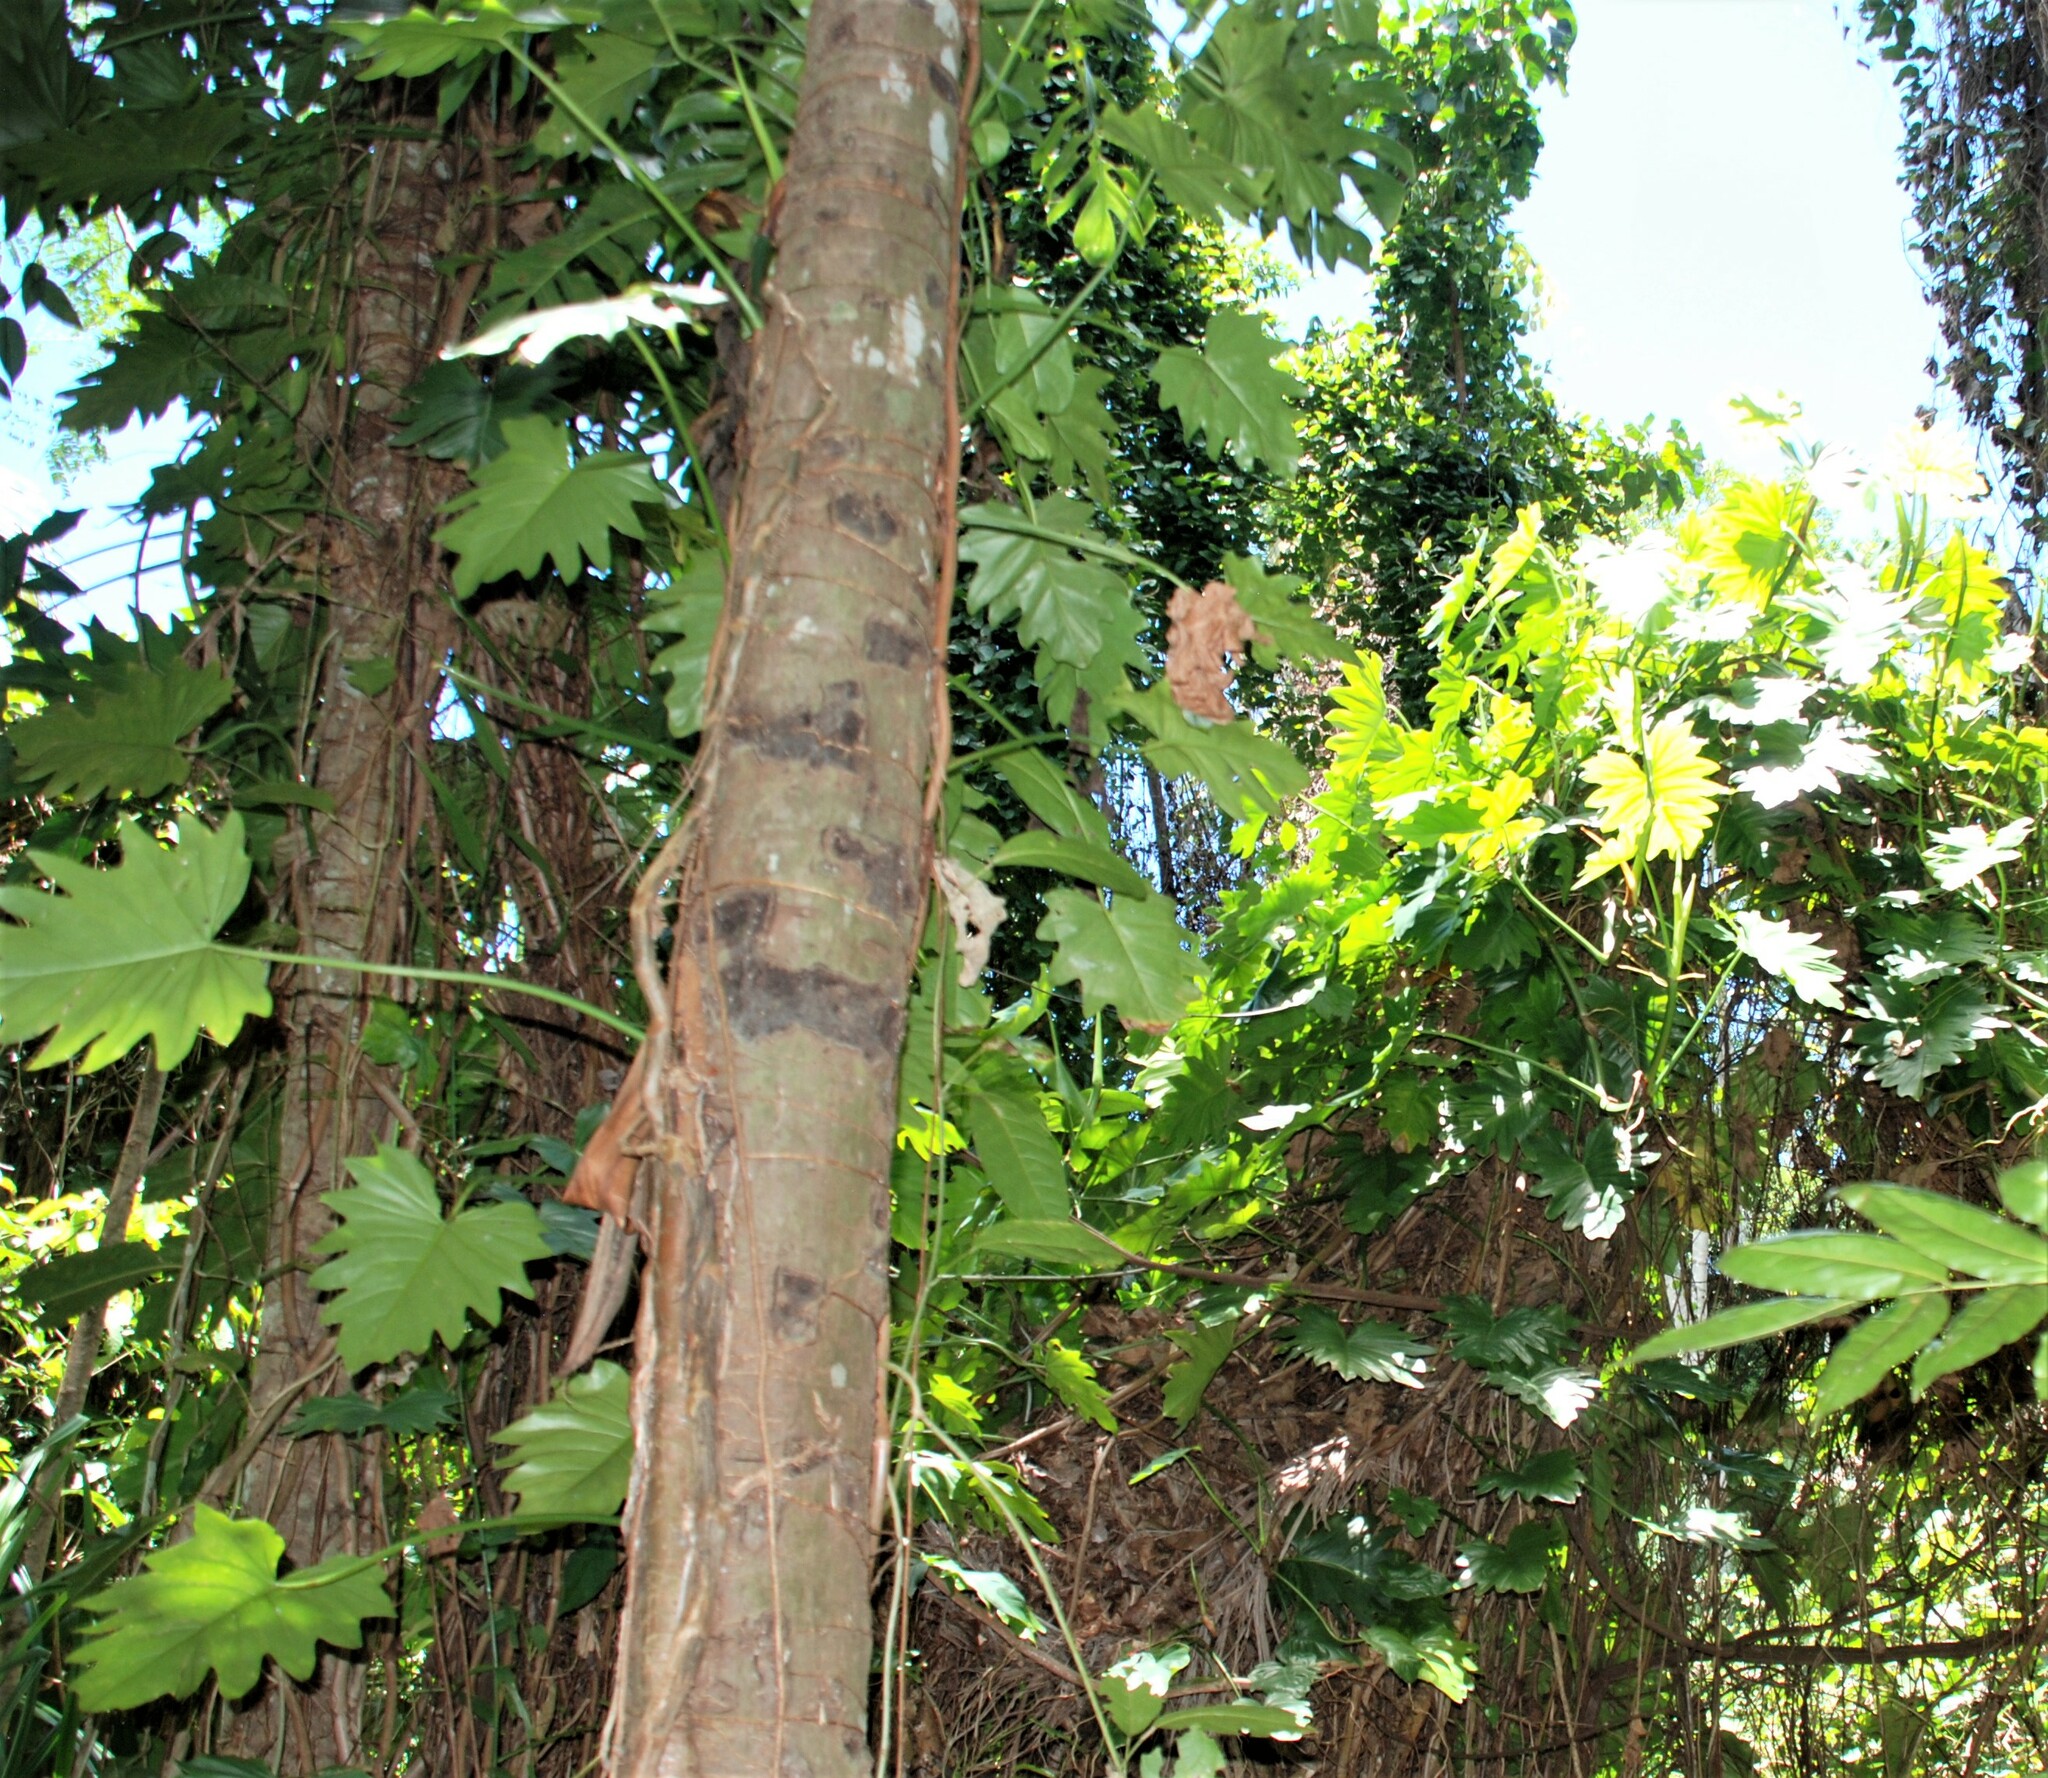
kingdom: Plantae
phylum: Tracheophyta
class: Liliopsida
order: Alismatales
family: Araceae
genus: Philodendron
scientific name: Philodendron lacerum
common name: Philodendron
